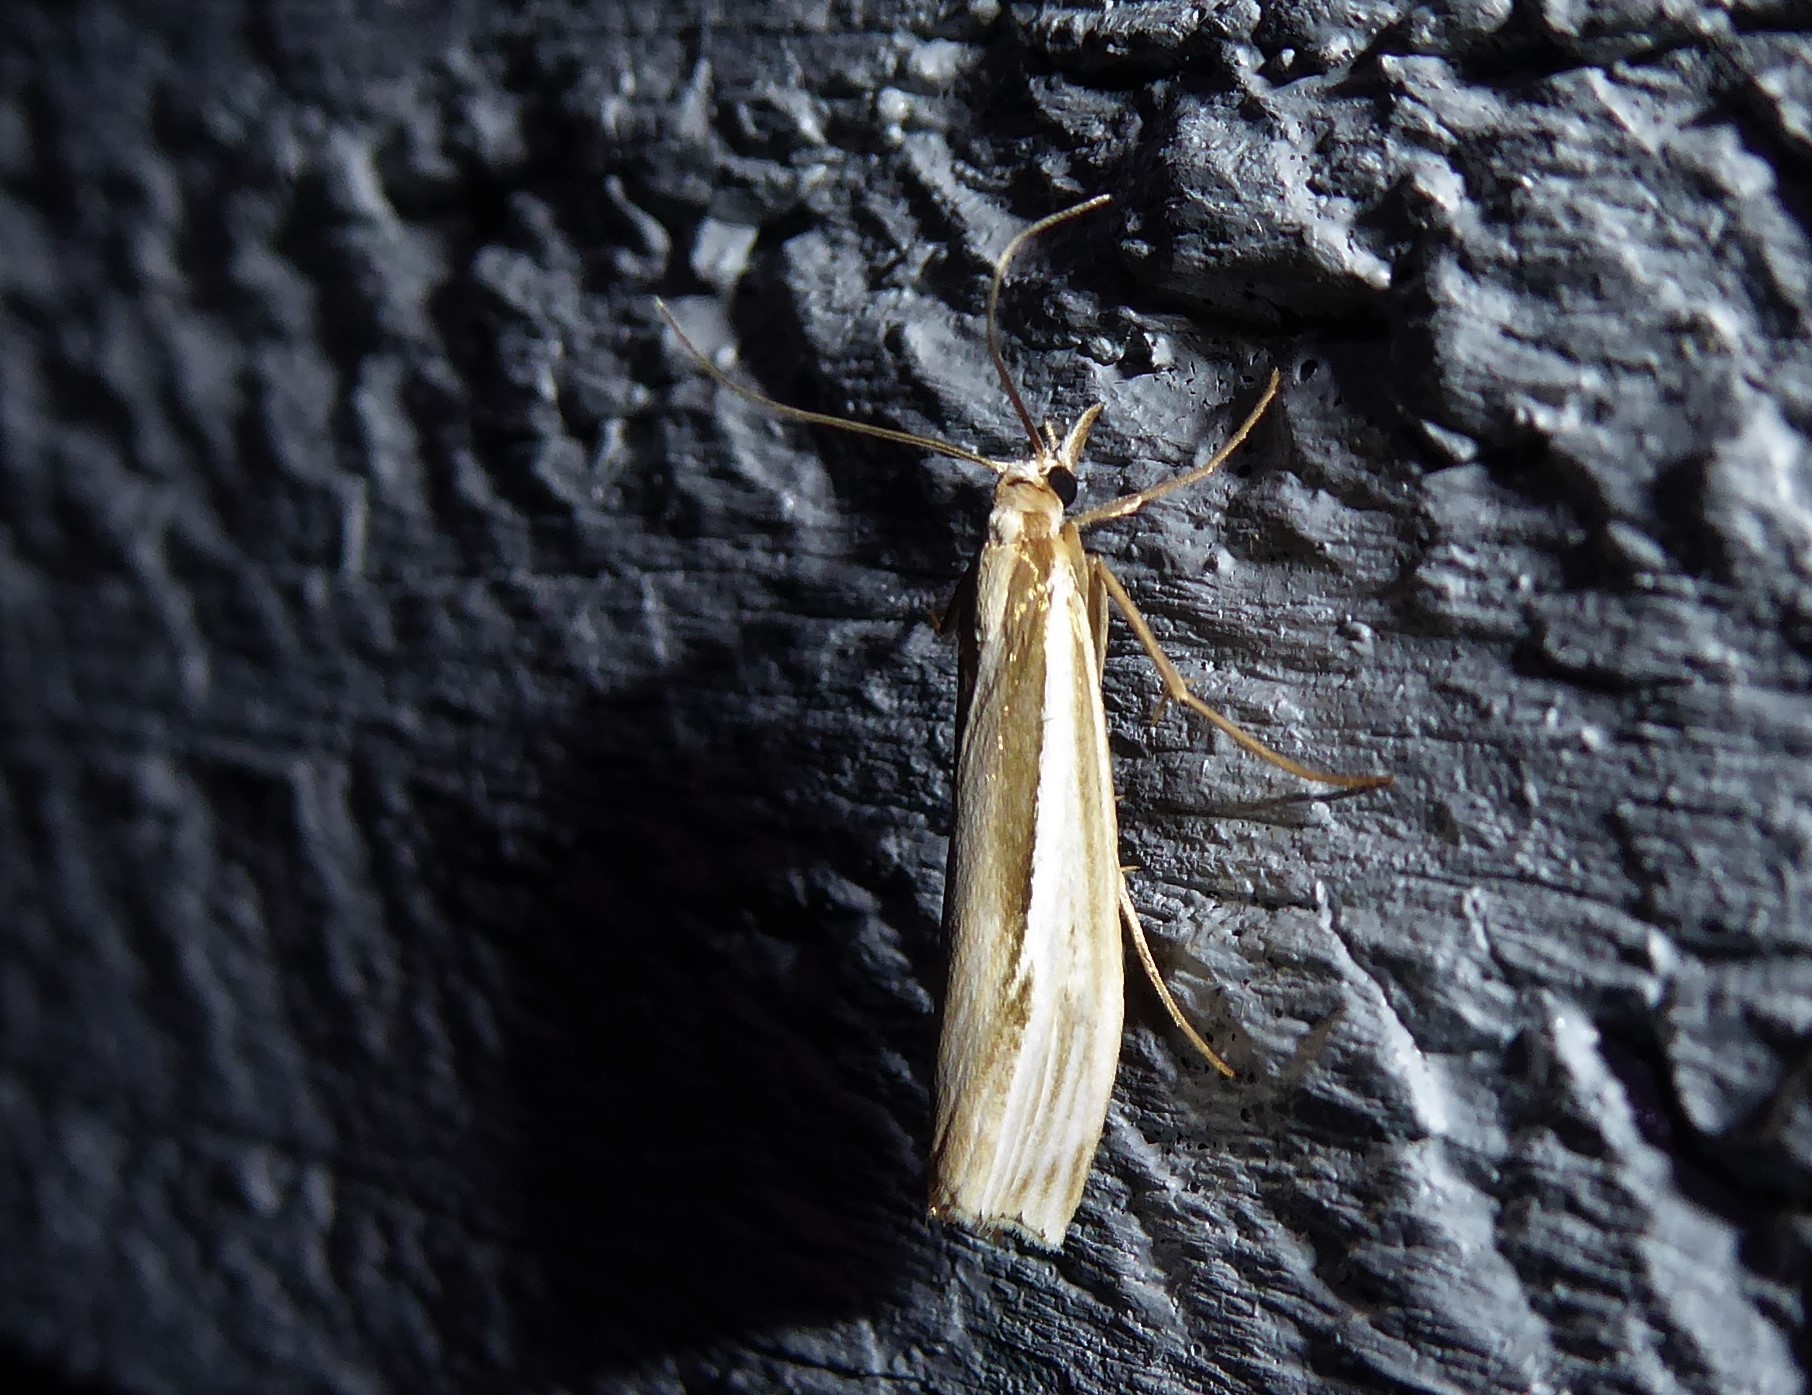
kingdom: Animalia
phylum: Arthropoda
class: Insecta
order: Lepidoptera
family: Crambidae
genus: Orocrambus
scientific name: Orocrambus ramosellus
